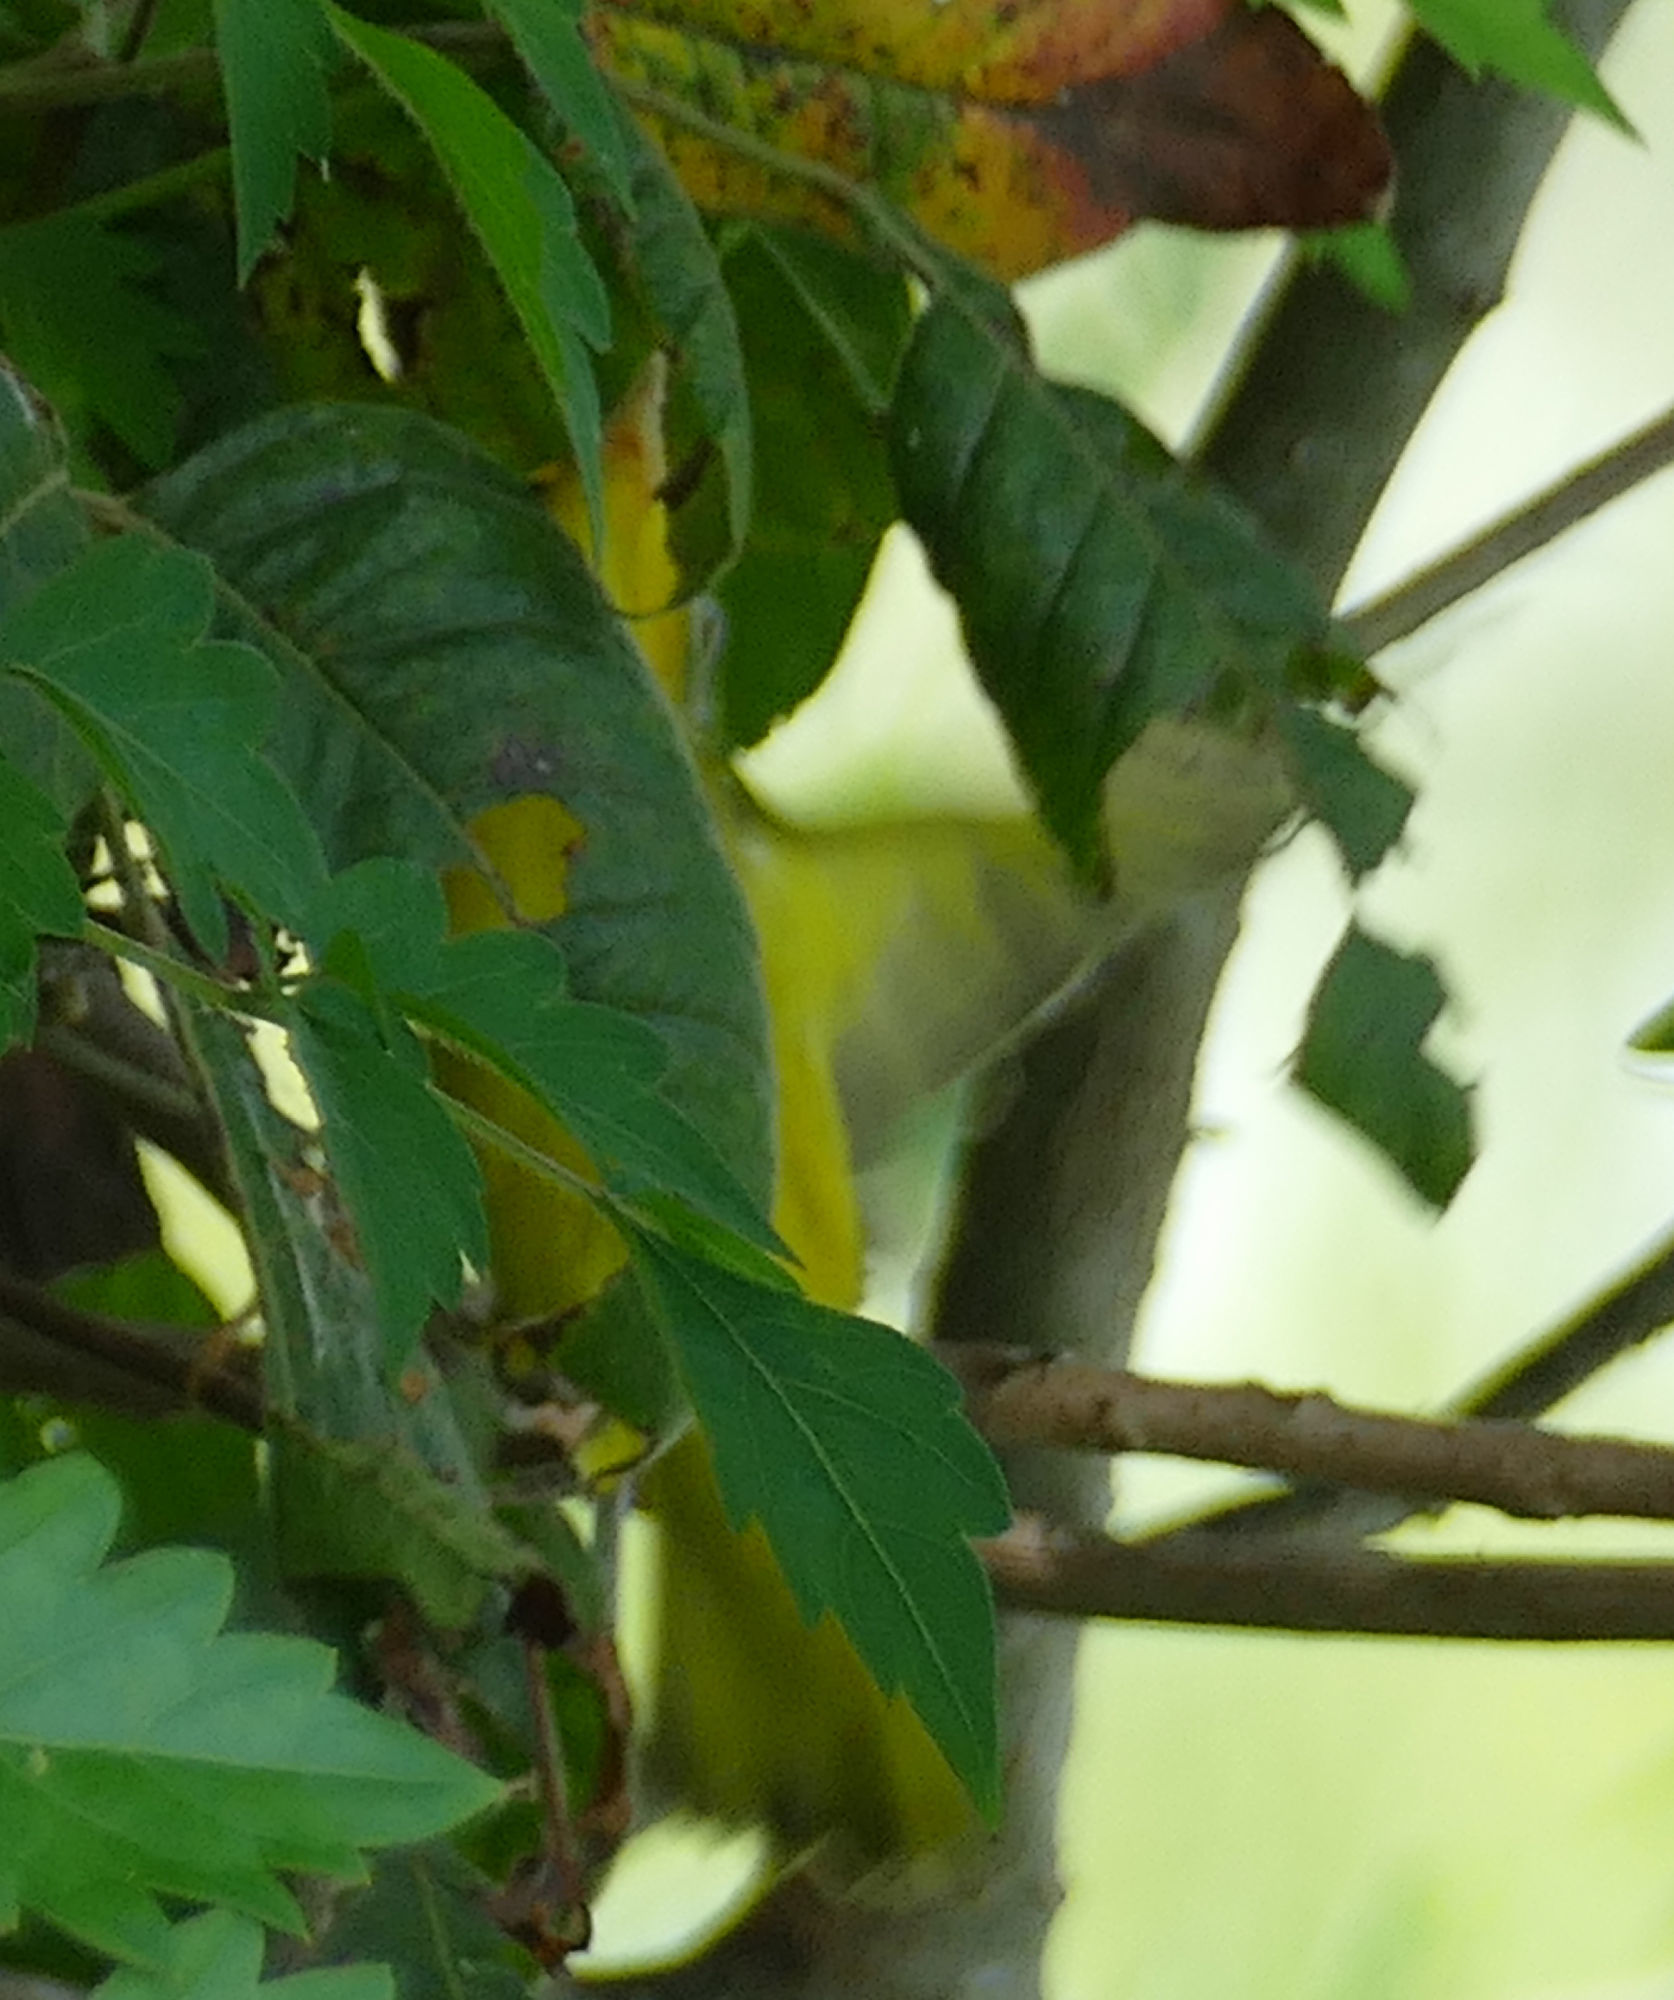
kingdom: Animalia
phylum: Chordata
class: Aves
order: Passeriformes
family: Parulidae
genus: Setophaga
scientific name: Setophaga petechia
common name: Yellow warbler
